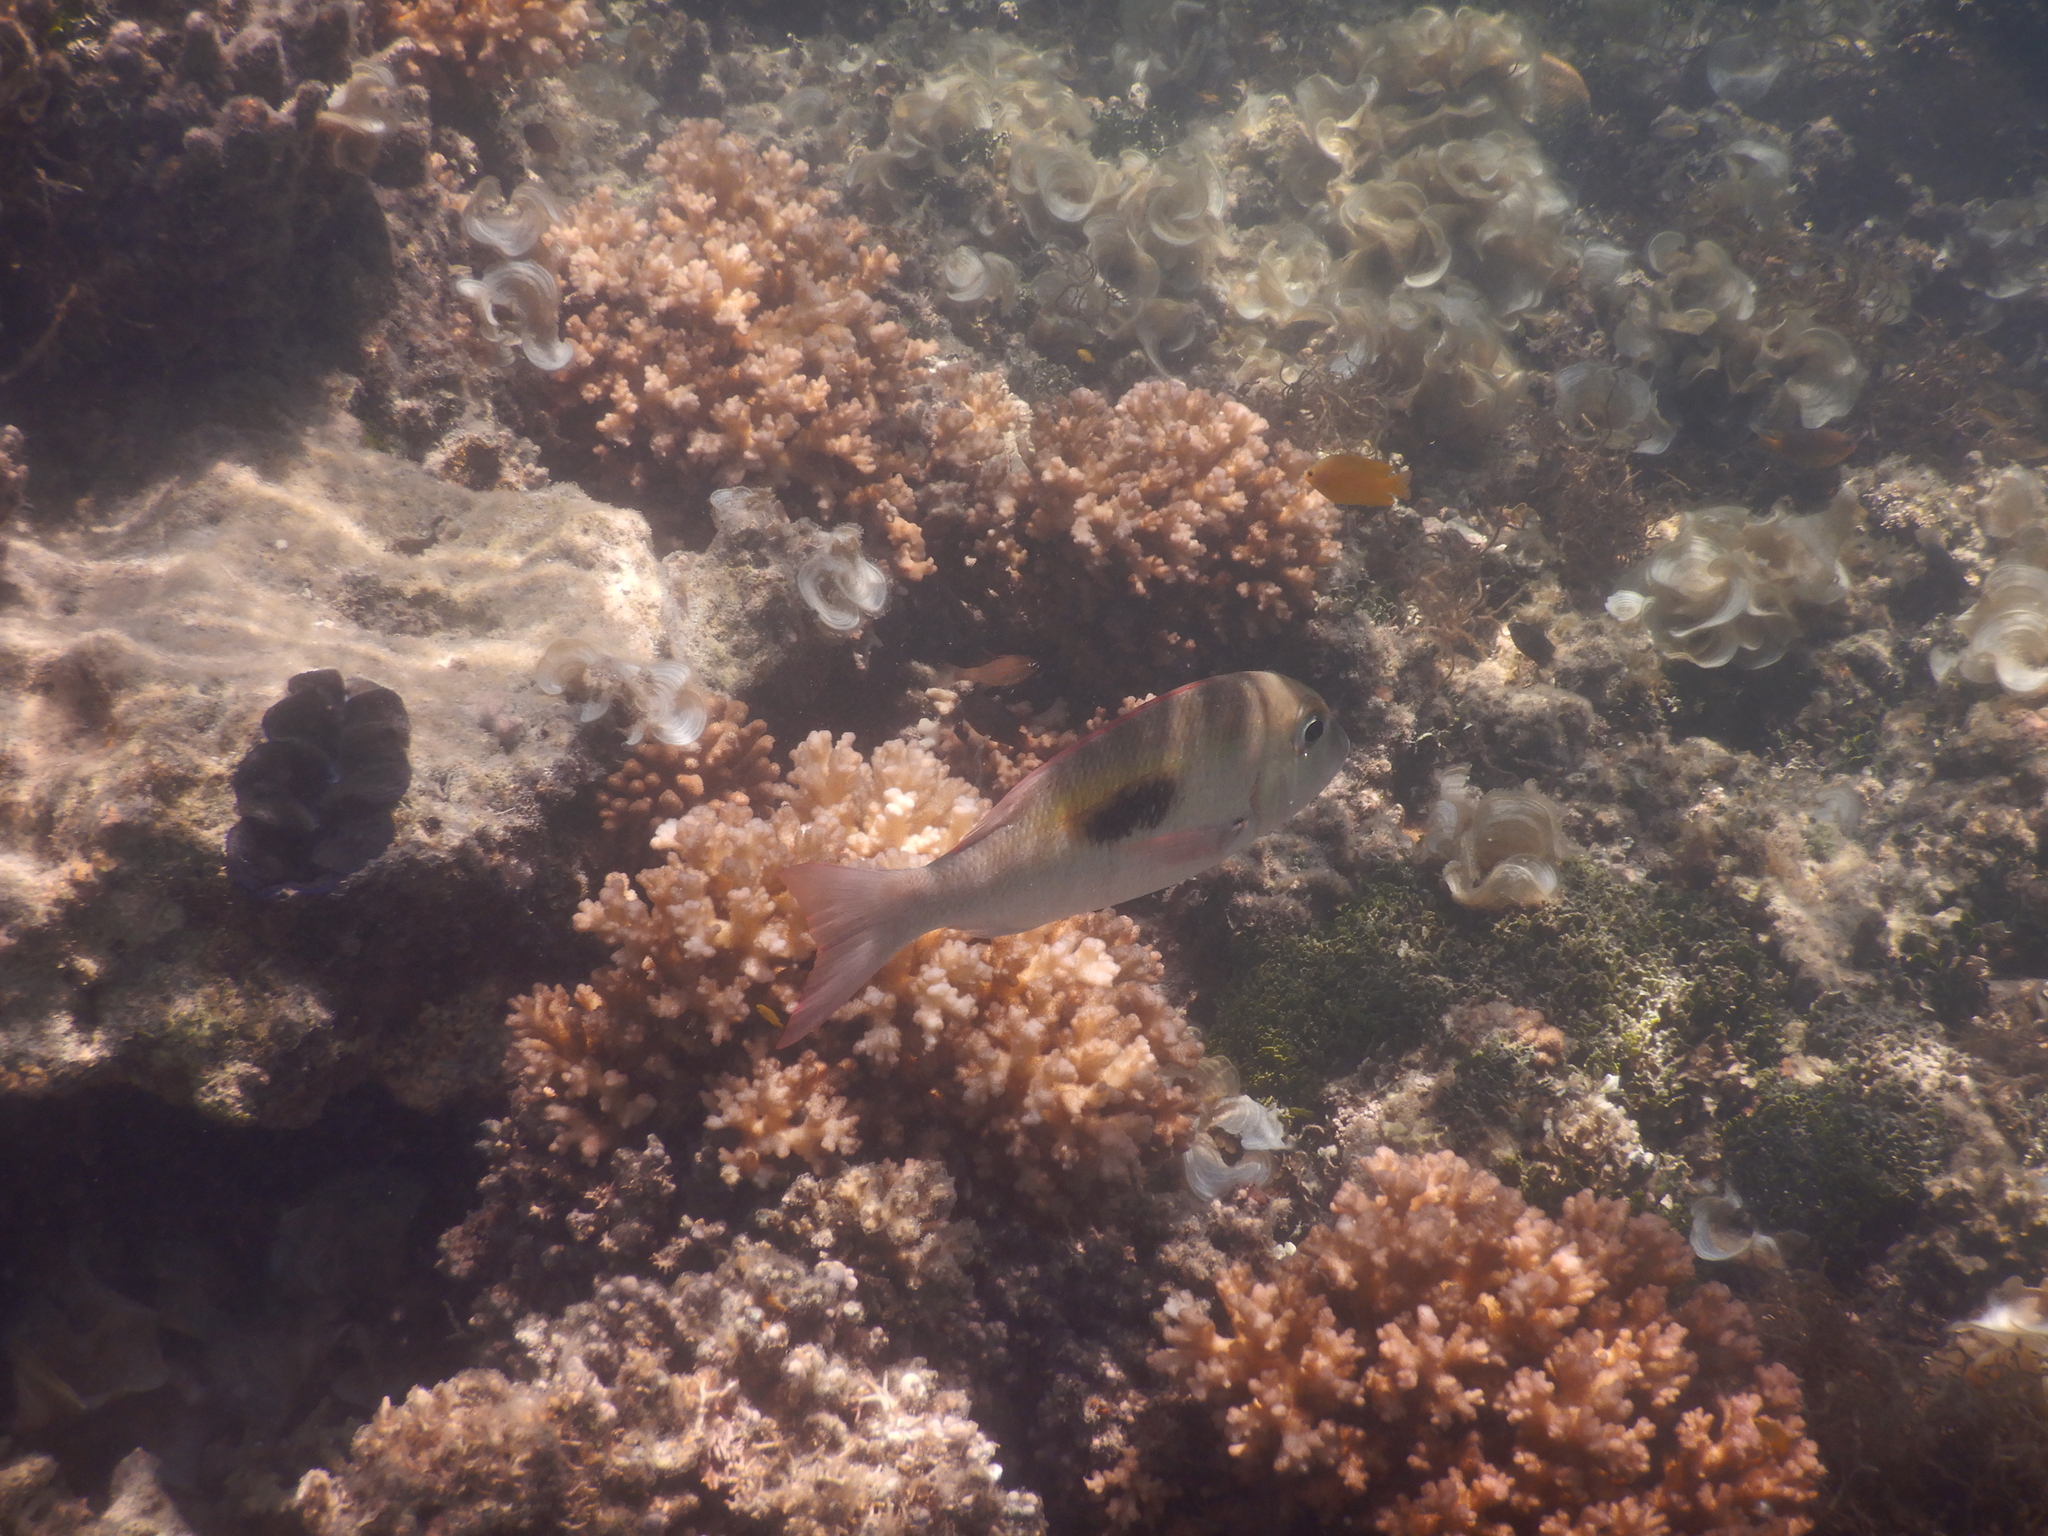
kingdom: Animalia
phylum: Chordata
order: Perciformes
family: Lethrinidae
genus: Lethrinus
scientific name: Lethrinus harak
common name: Blackspot emperor
